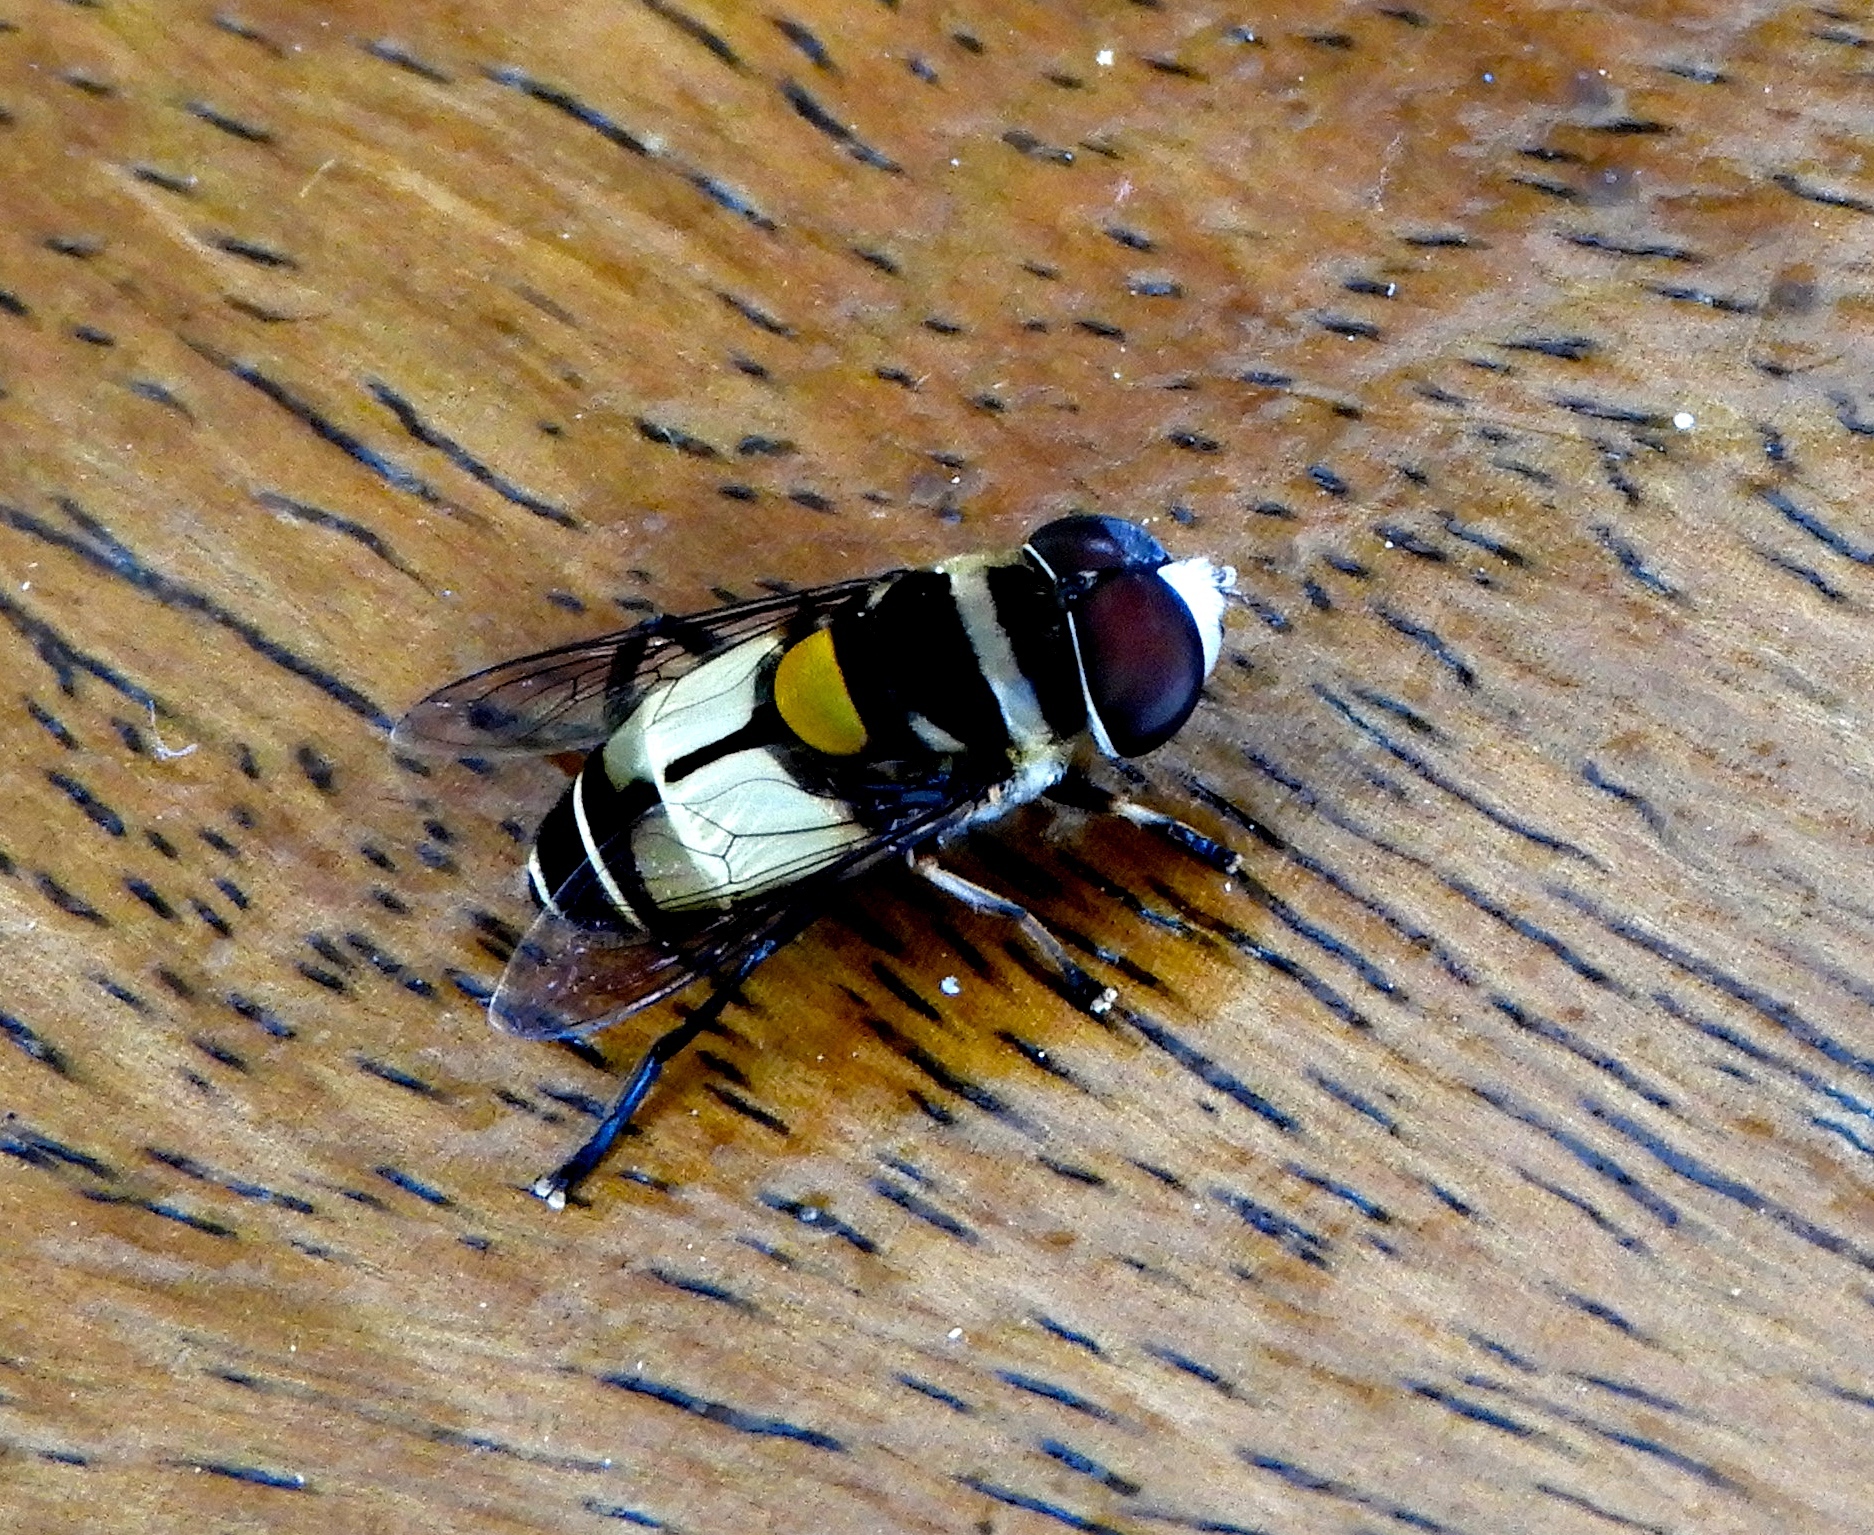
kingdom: Animalia
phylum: Arthropoda
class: Insecta
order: Diptera
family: Syrphidae
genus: Palpada
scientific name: Palpada albifrons
